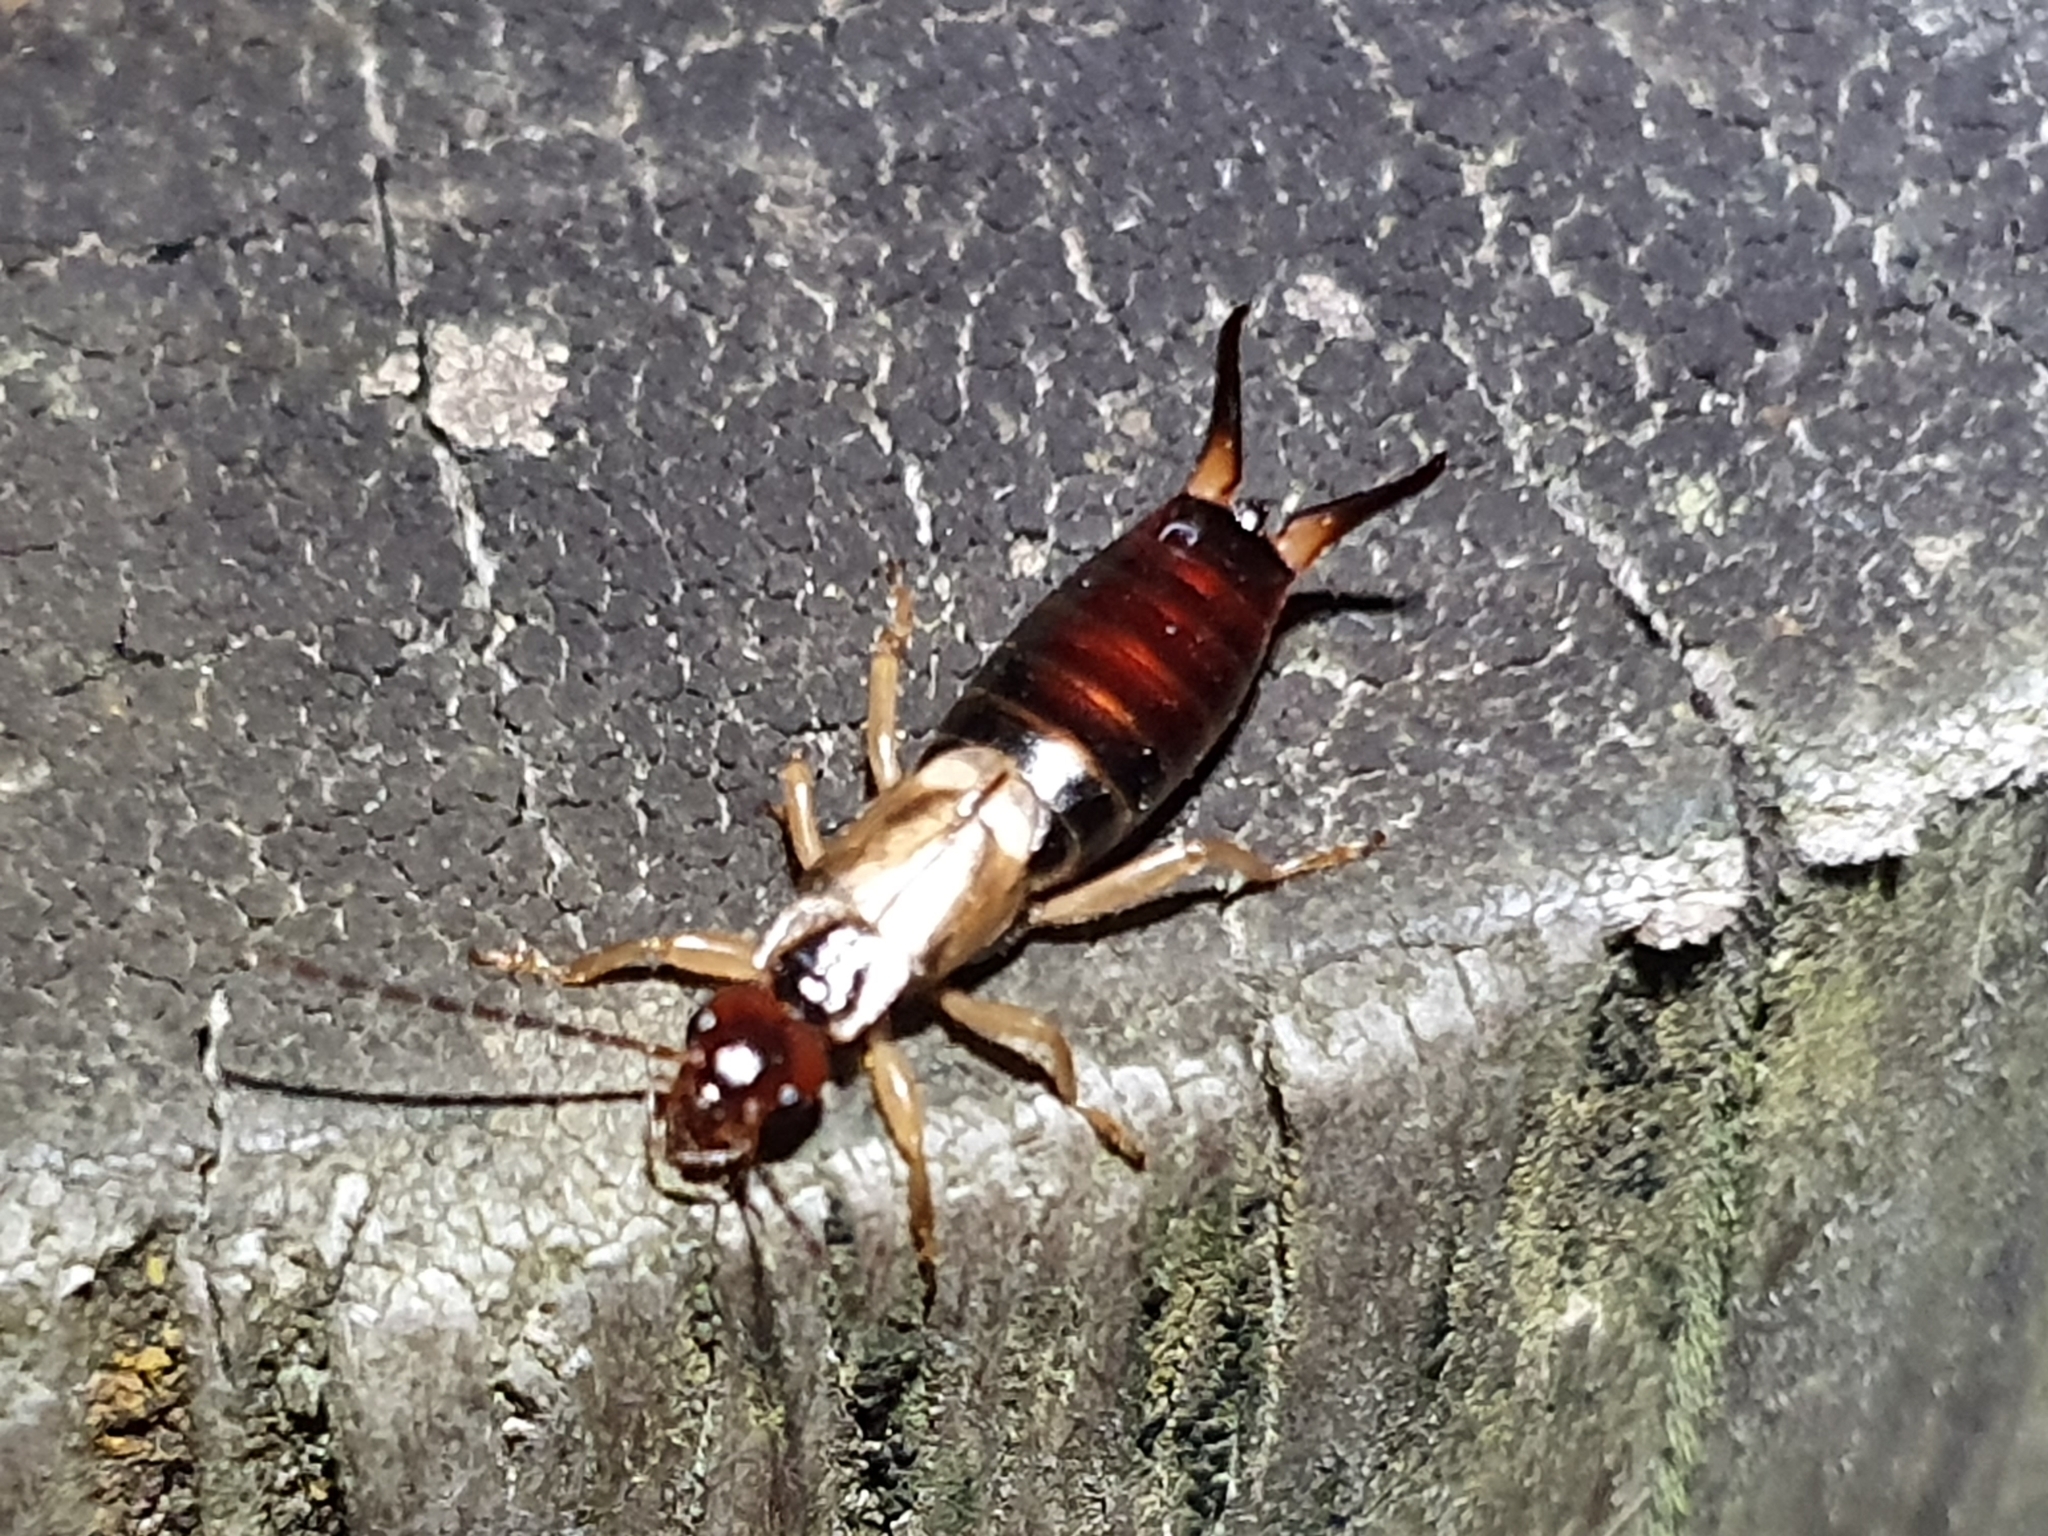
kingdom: Animalia
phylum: Arthropoda
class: Insecta
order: Dermaptera
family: Forficulidae
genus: Forficula
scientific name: Forficula
